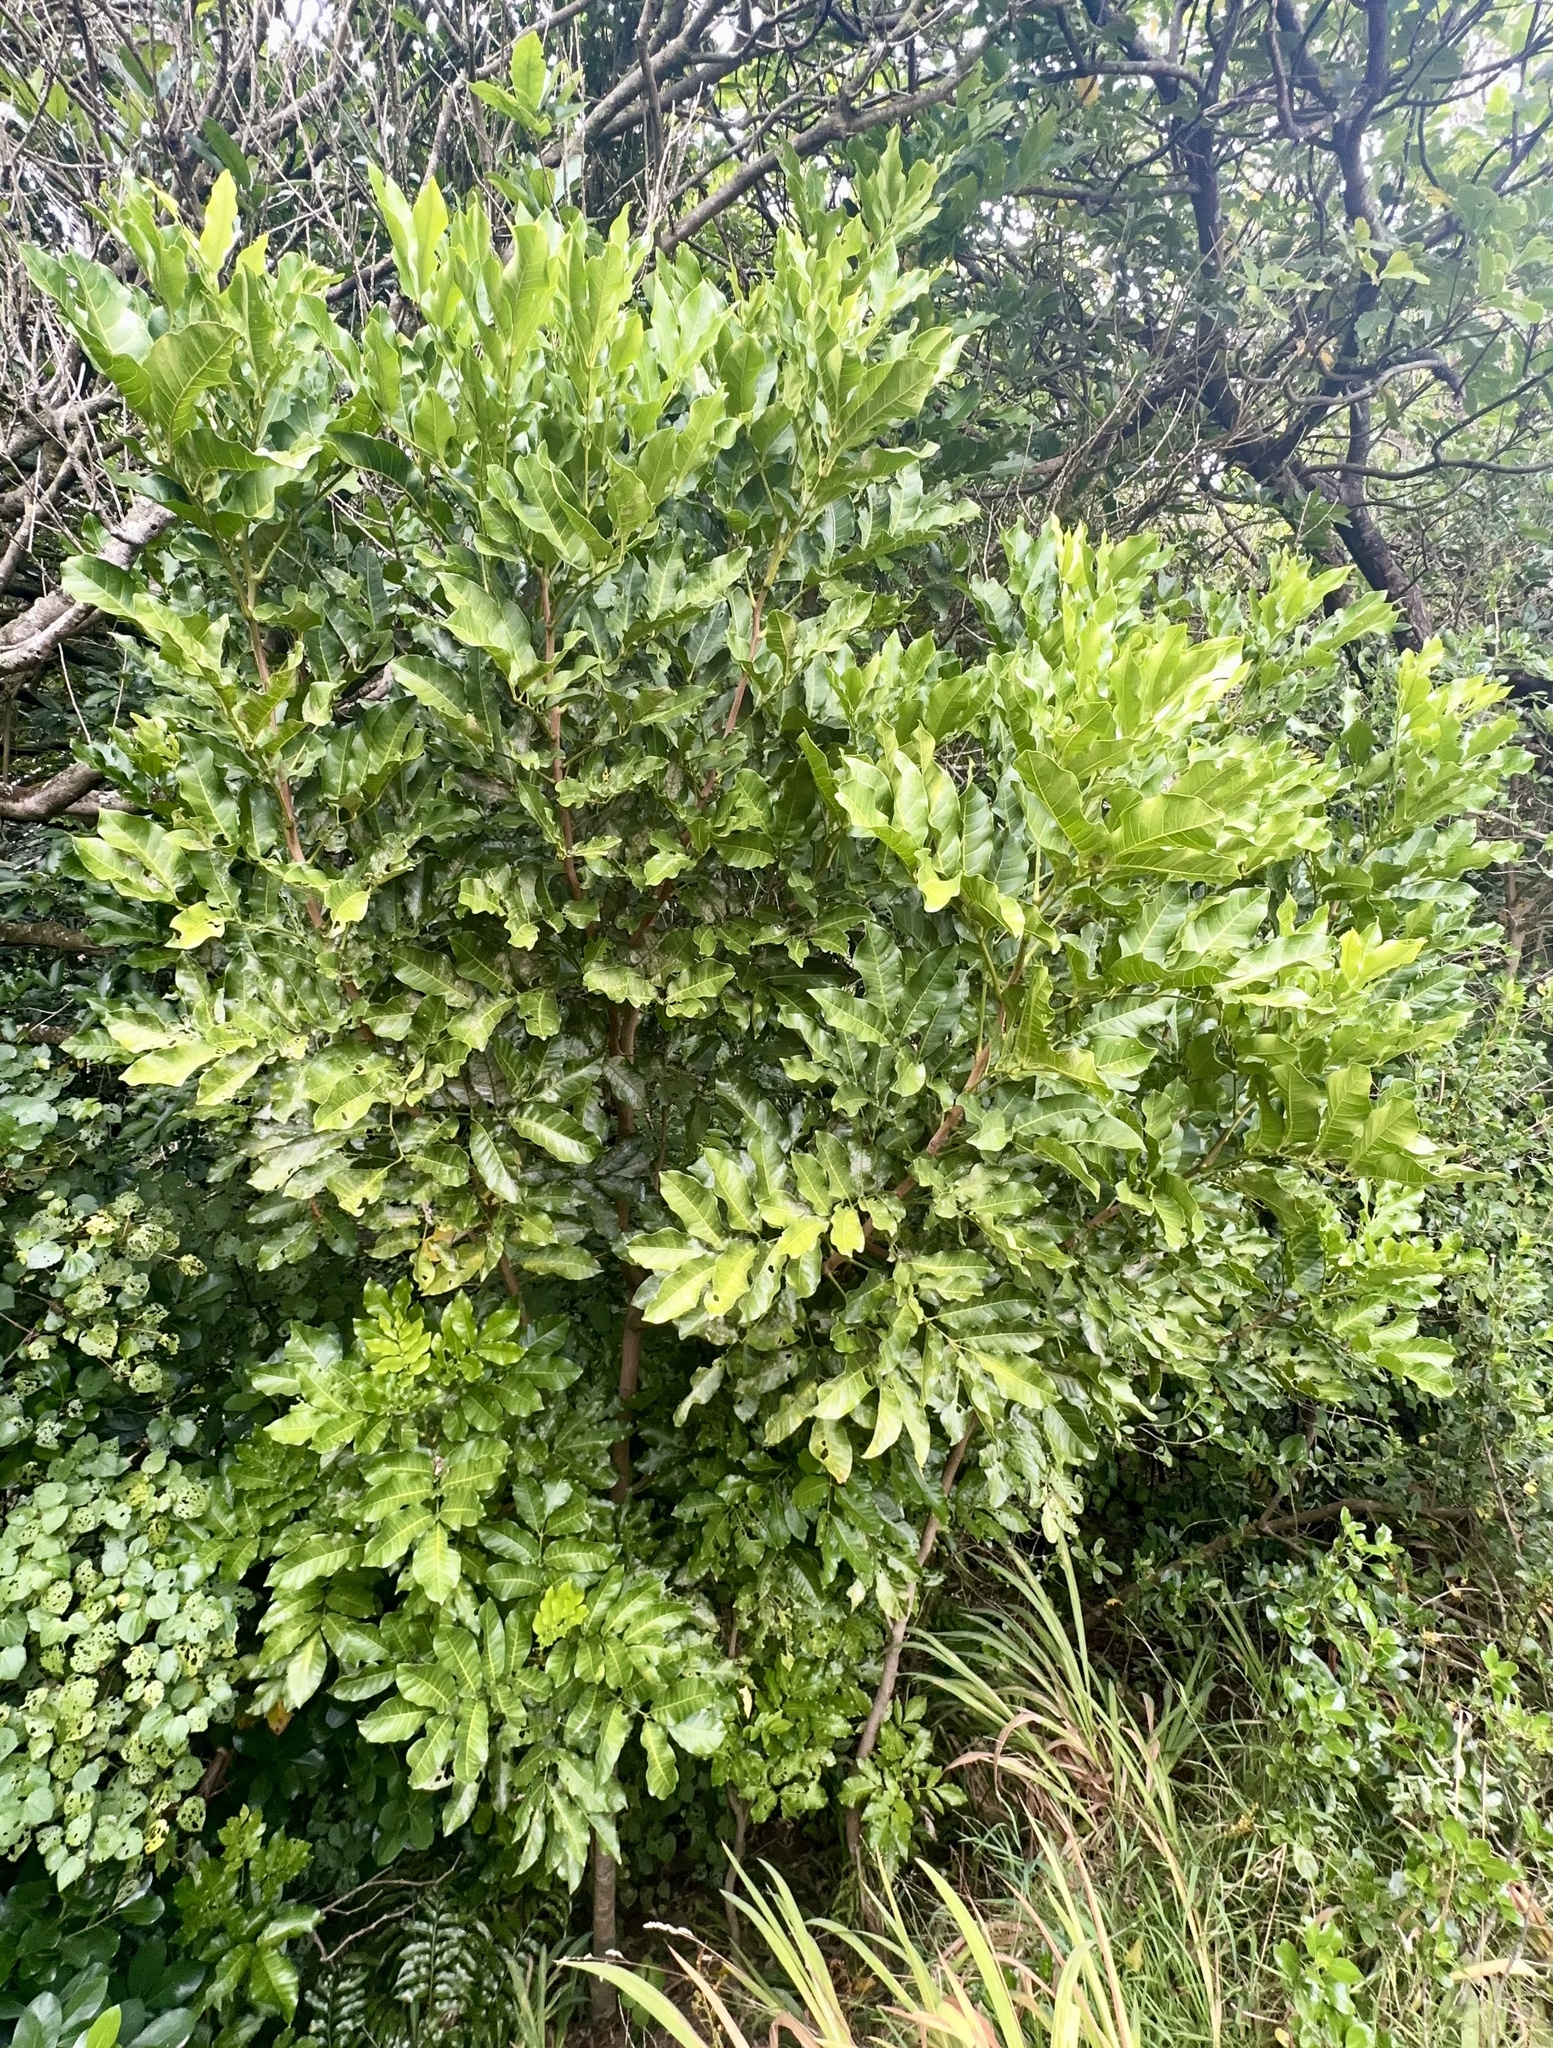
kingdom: Plantae
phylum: Tracheophyta
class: Magnoliopsida
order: Sapindales
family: Meliaceae
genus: Didymocheton
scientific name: Didymocheton spectabilis
